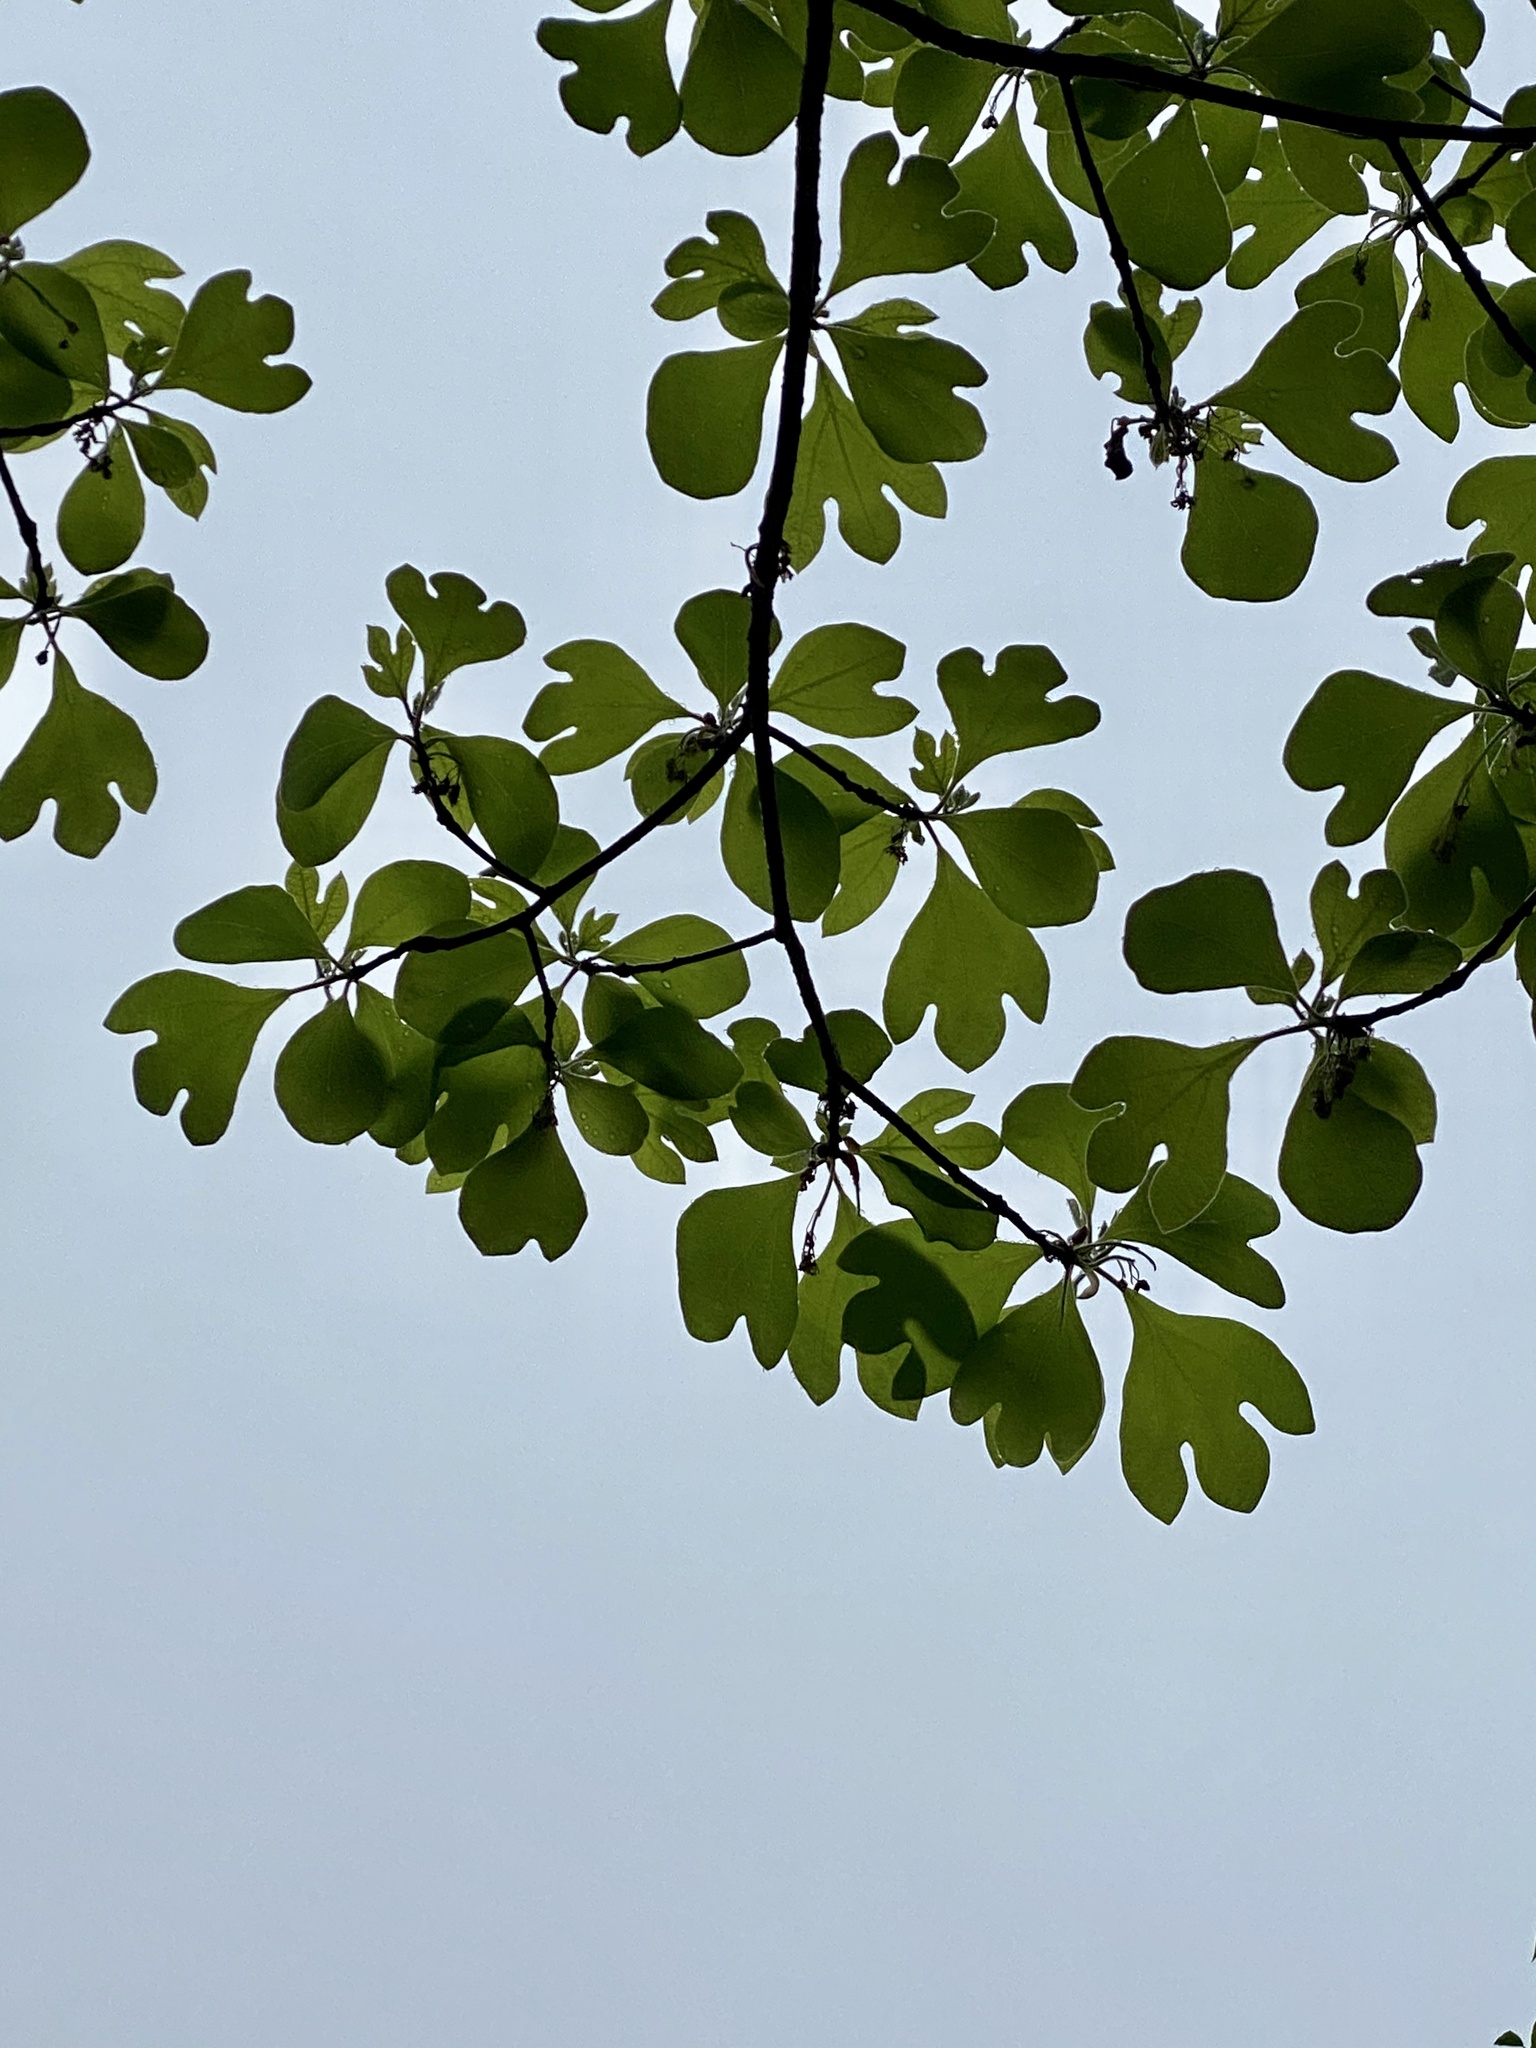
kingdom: Plantae
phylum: Tracheophyta
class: Magnoliopsida
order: Laurales
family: Lauraceae
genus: Sassafras
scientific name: Sassafras albidum
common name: Sassafras
